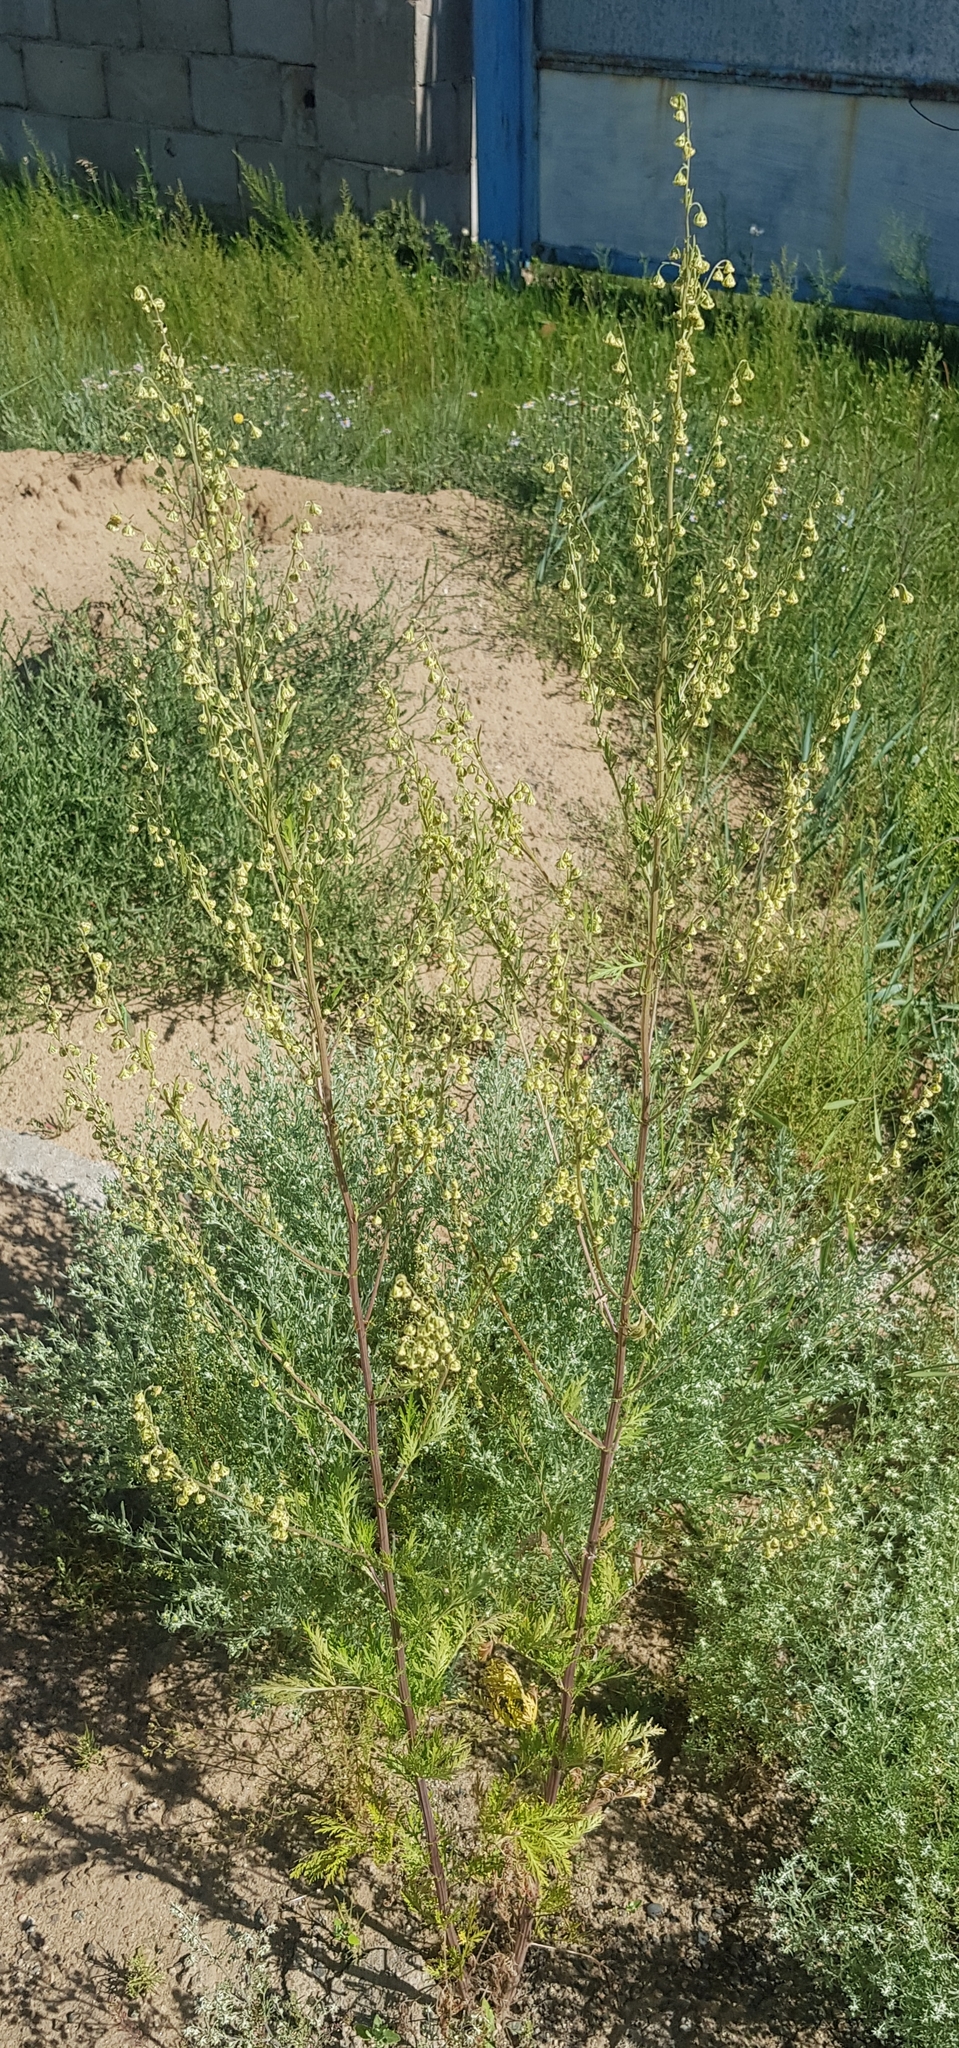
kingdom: Plantae
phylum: Tracheophyta
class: Magnoliopsida
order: Asterales
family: Asteraceae
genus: Artemisia
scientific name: Artemisia scoparia
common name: Redstem wormwood
